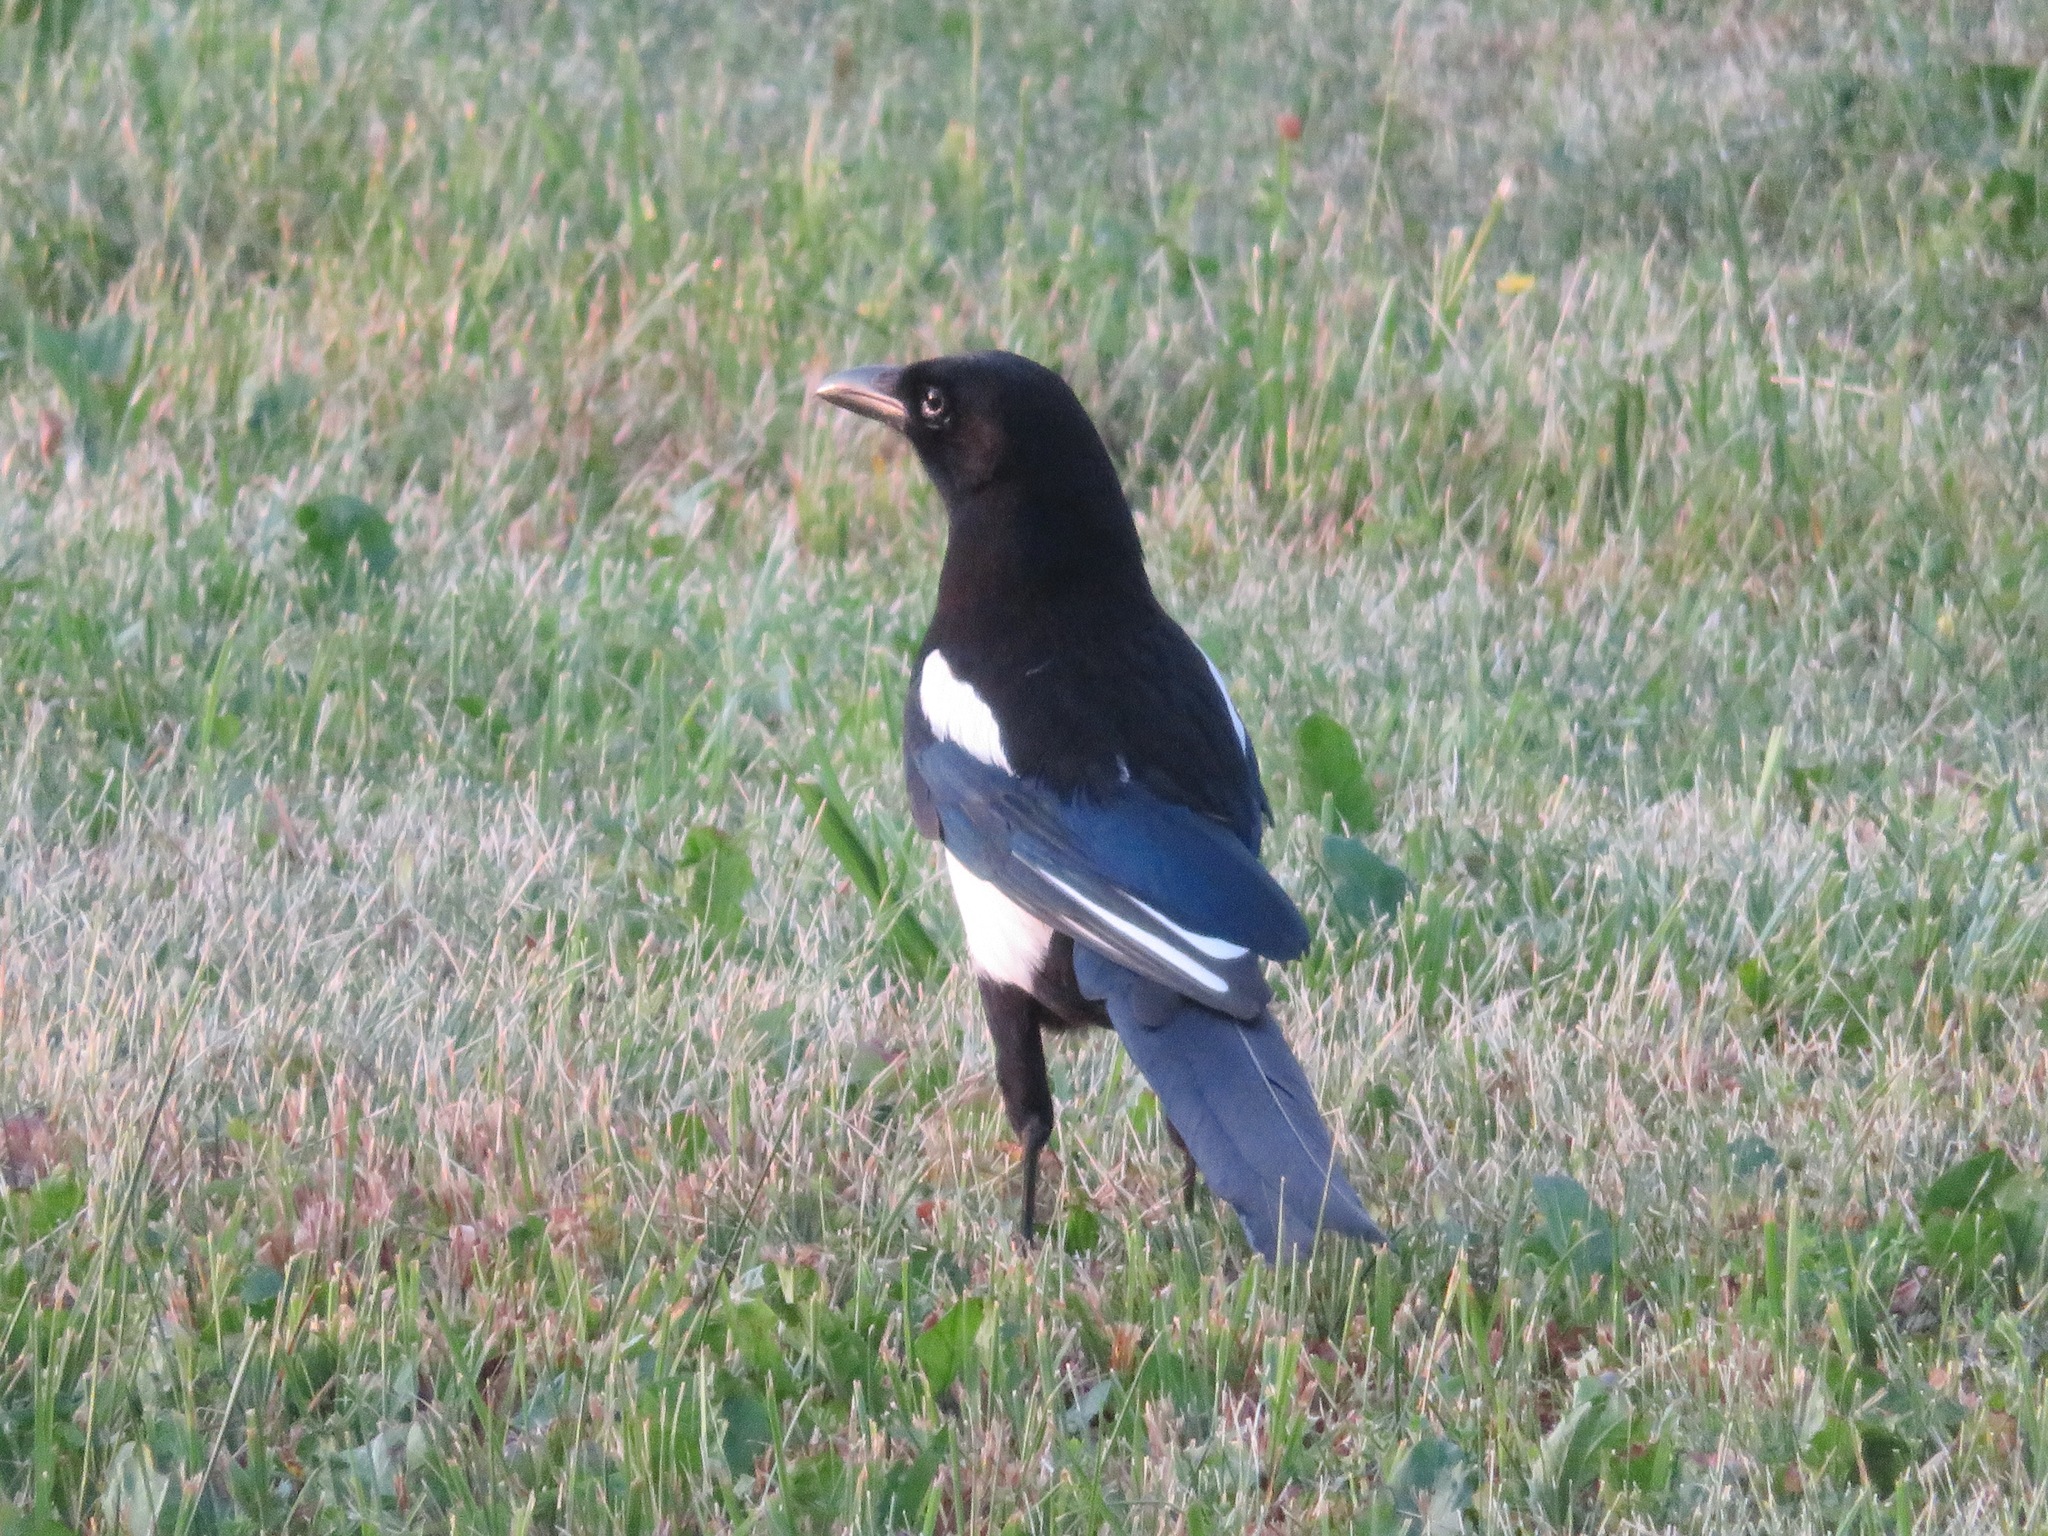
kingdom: Animalia
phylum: Chordata
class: Aves
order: Passeriformes
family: Corvidae
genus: Pica
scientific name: Pica pica
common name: Eurasian magpie
